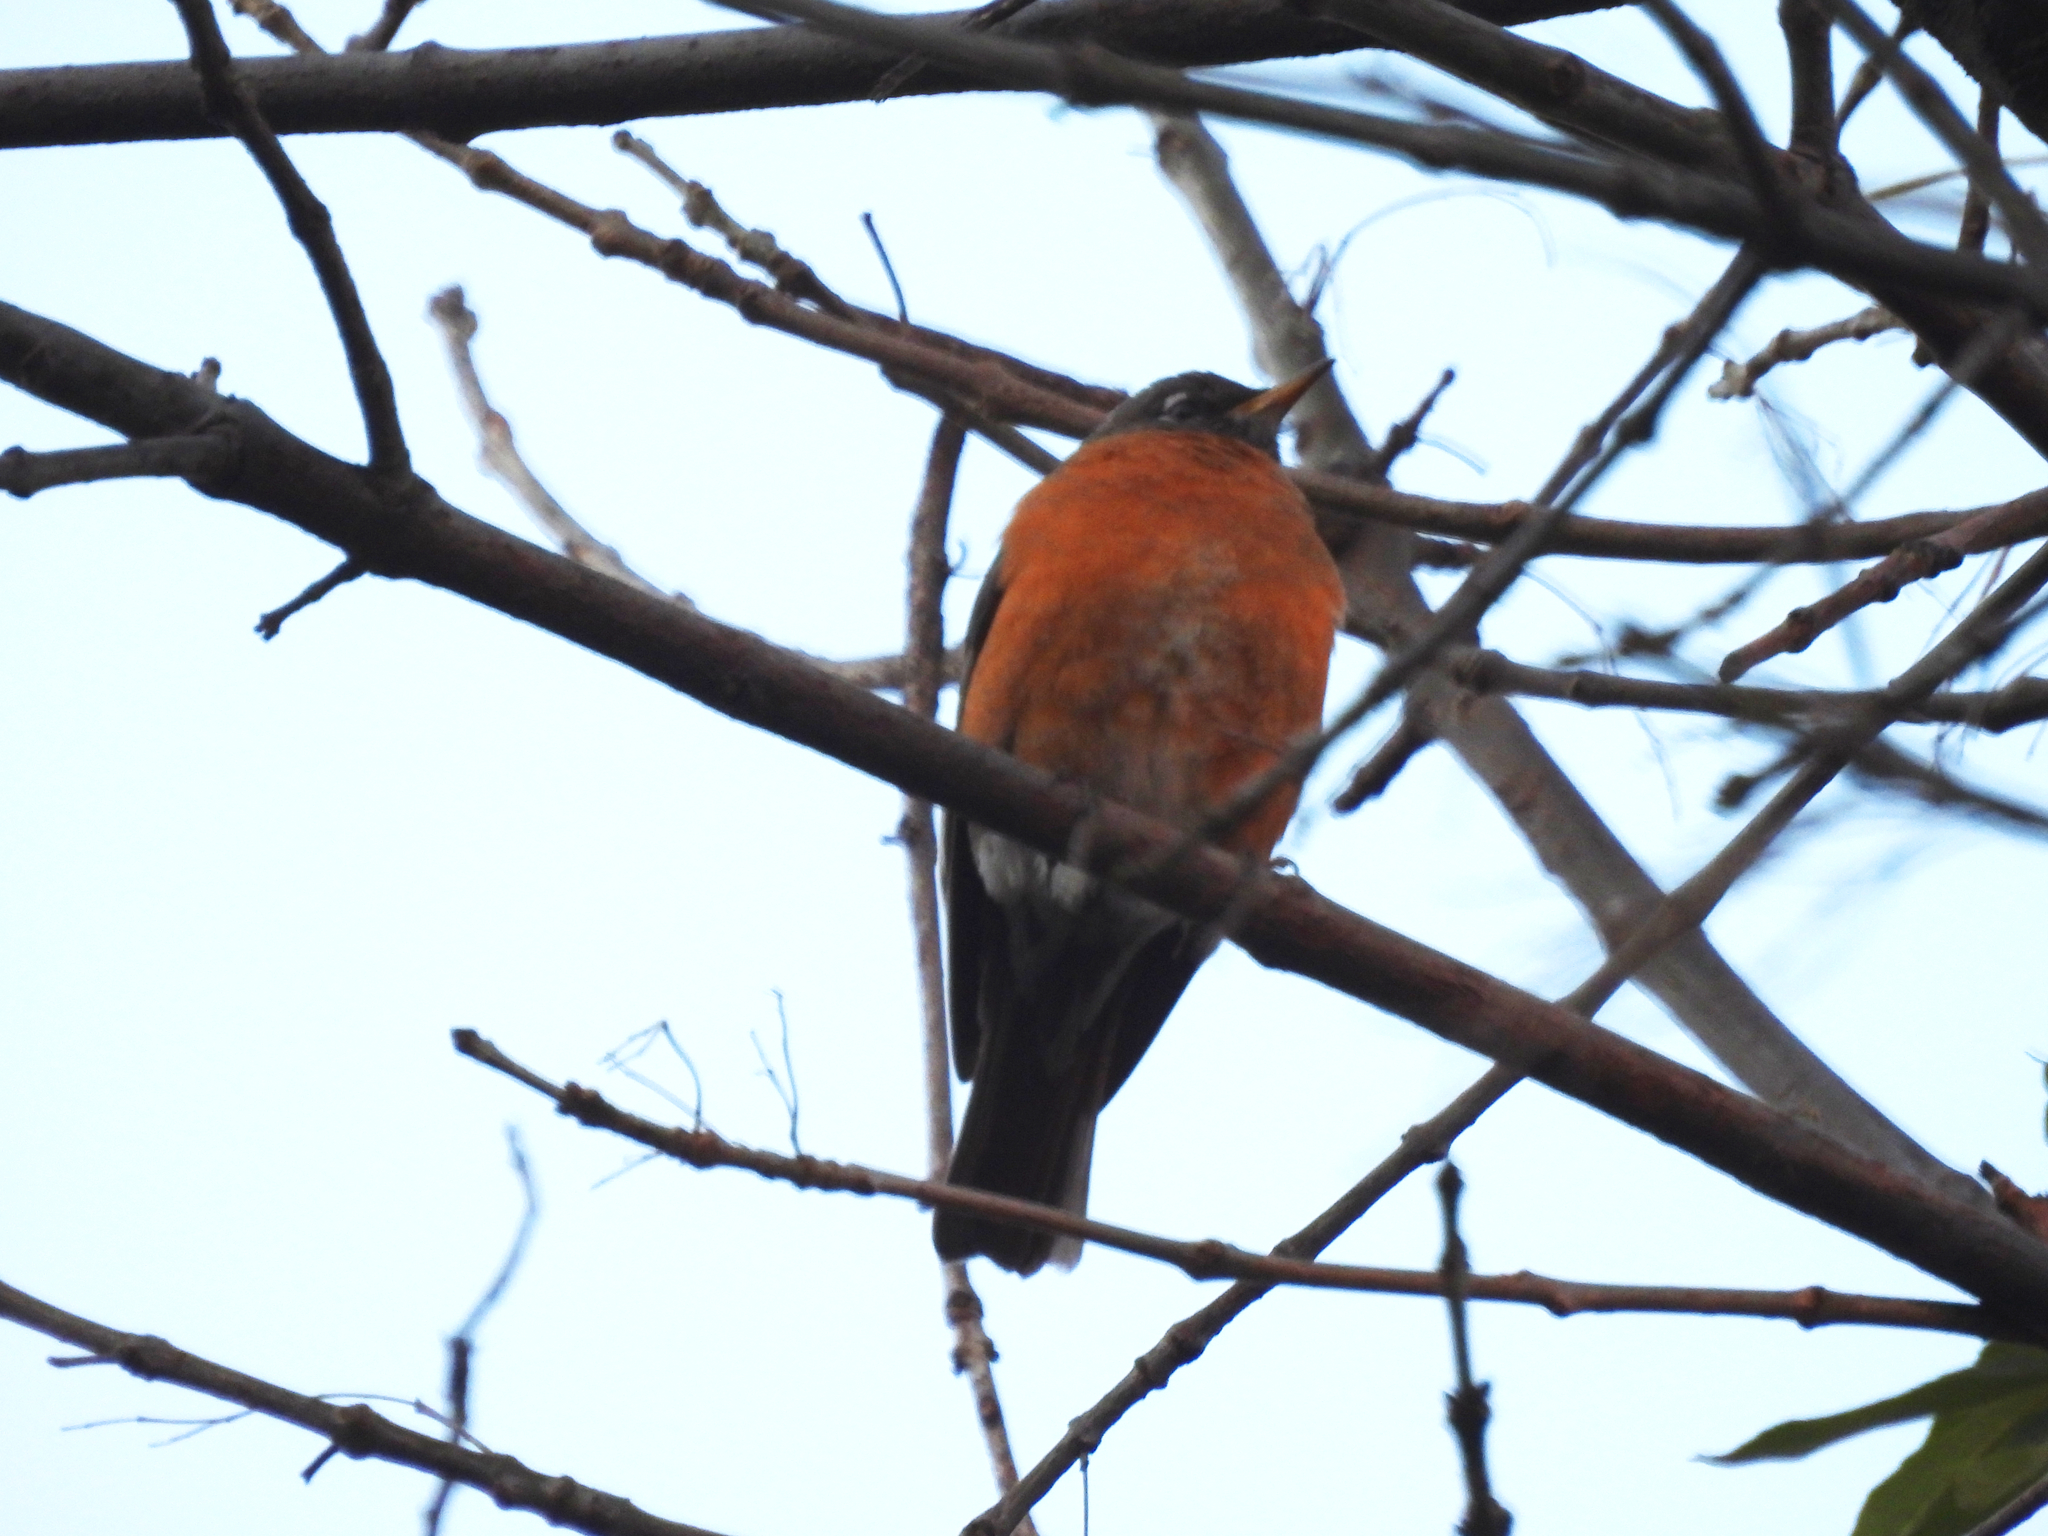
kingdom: Animalia
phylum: Chordata
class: Aves
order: Passeriformes
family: Turdidae
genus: Turdus
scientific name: Turdus migratorius
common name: American robin
